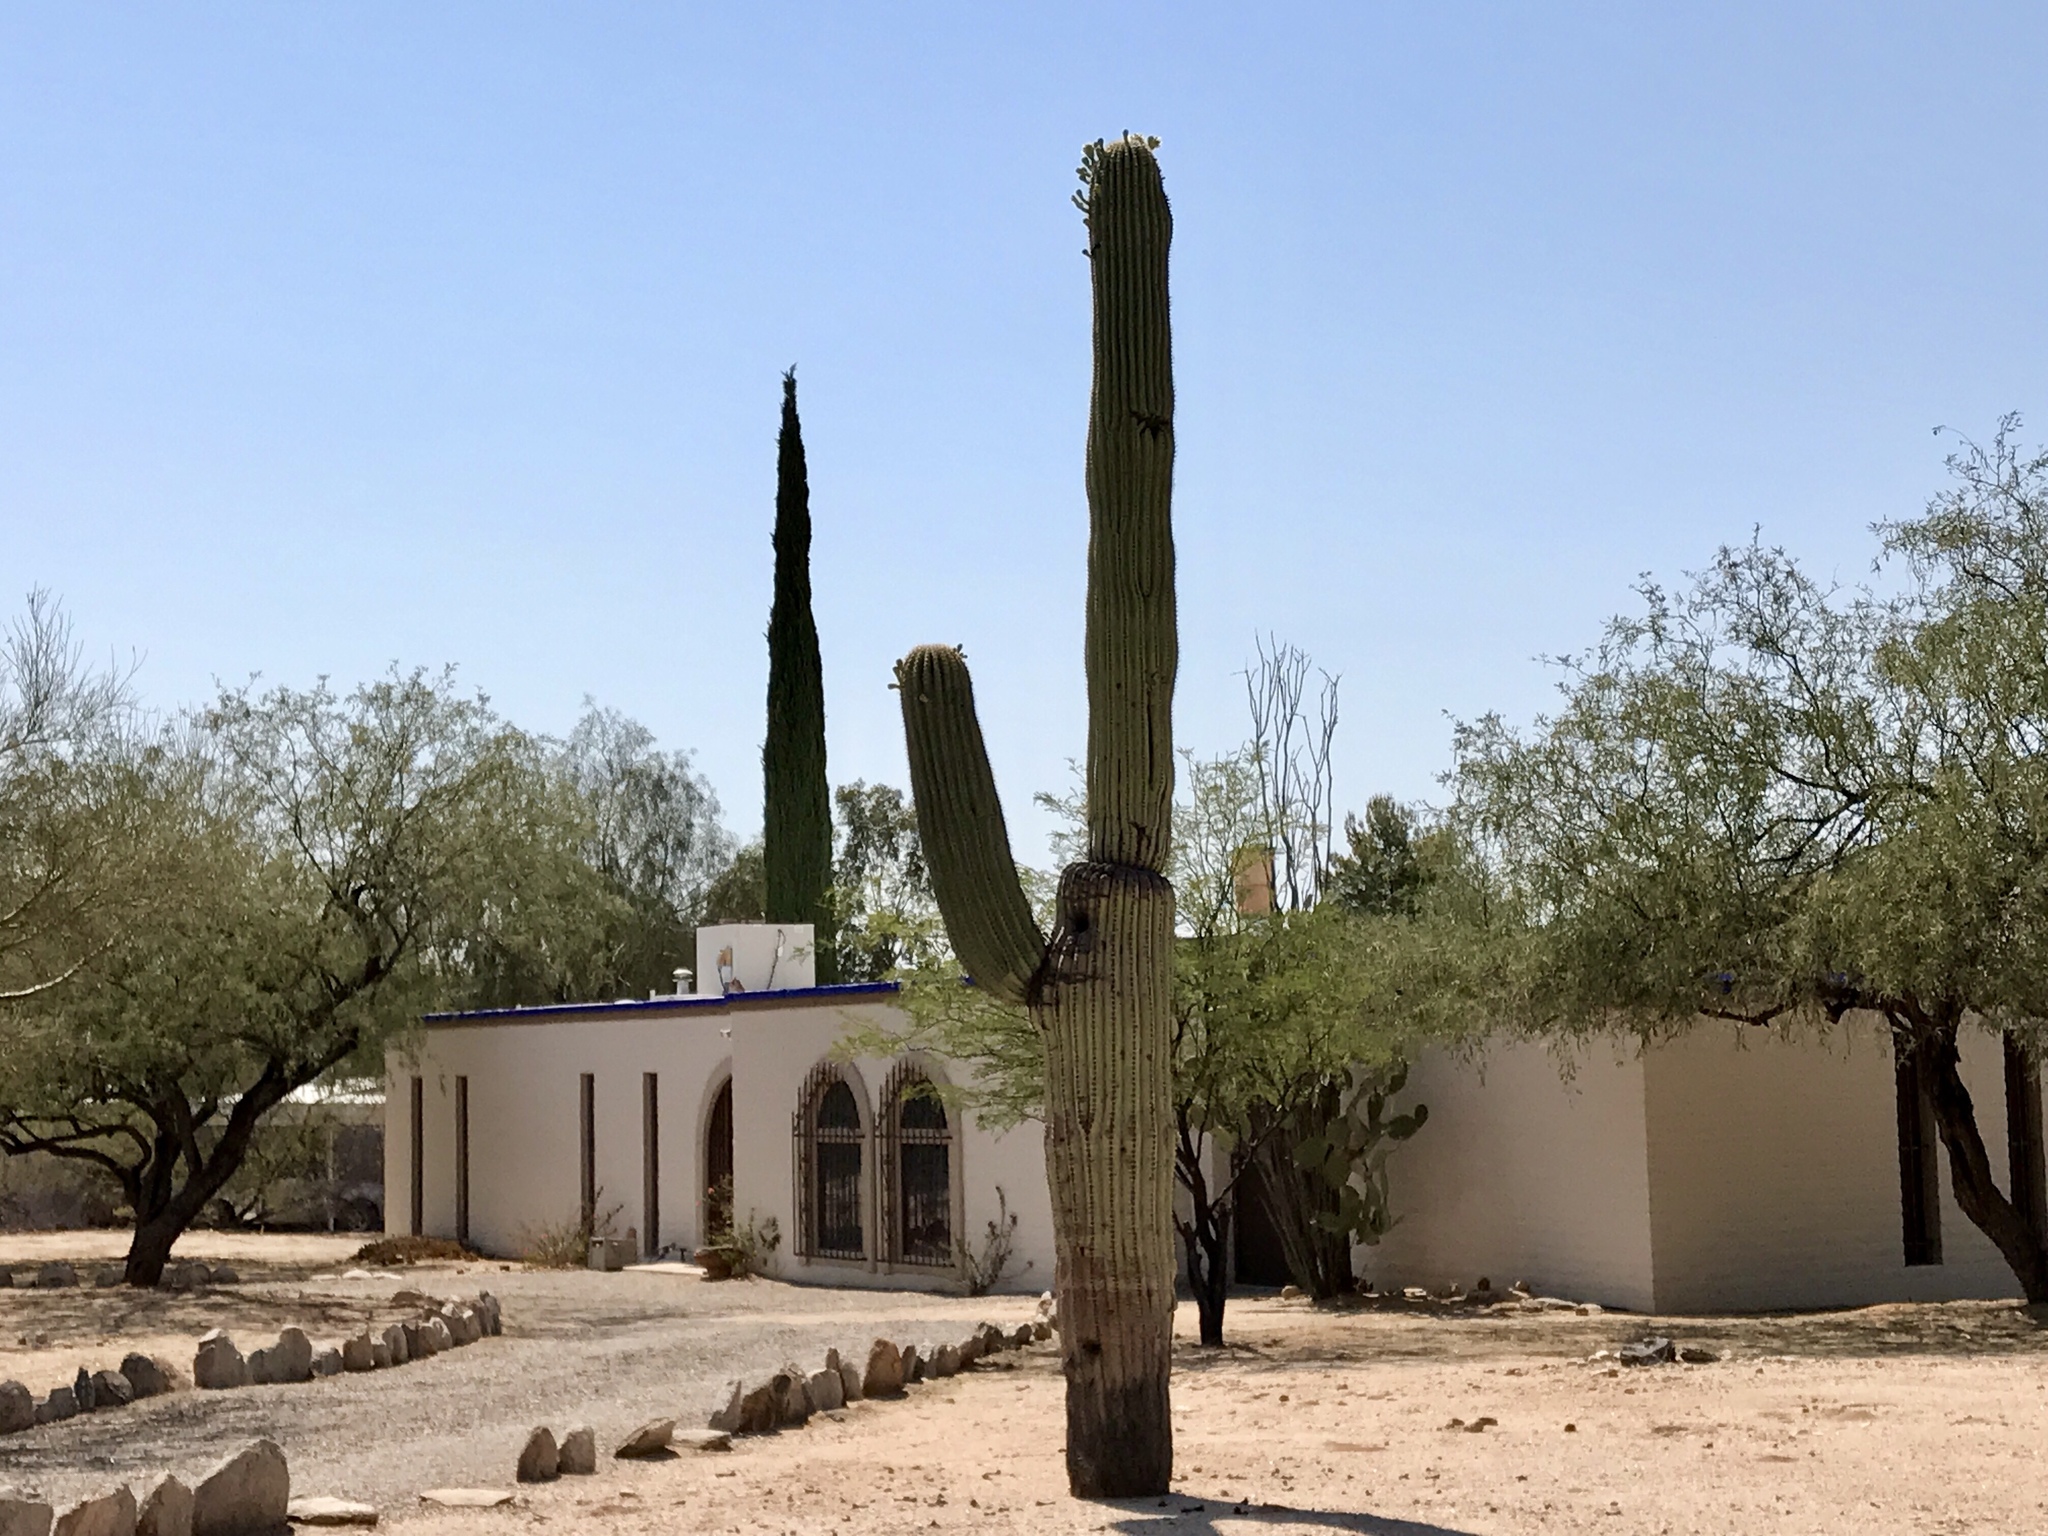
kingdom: Plantae
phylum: Tracheophyta
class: Magnoliopsida
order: Caryophyllales
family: Cactaceae
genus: Carnegiea
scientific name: Carnegiea gigantea
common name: Saguaro
